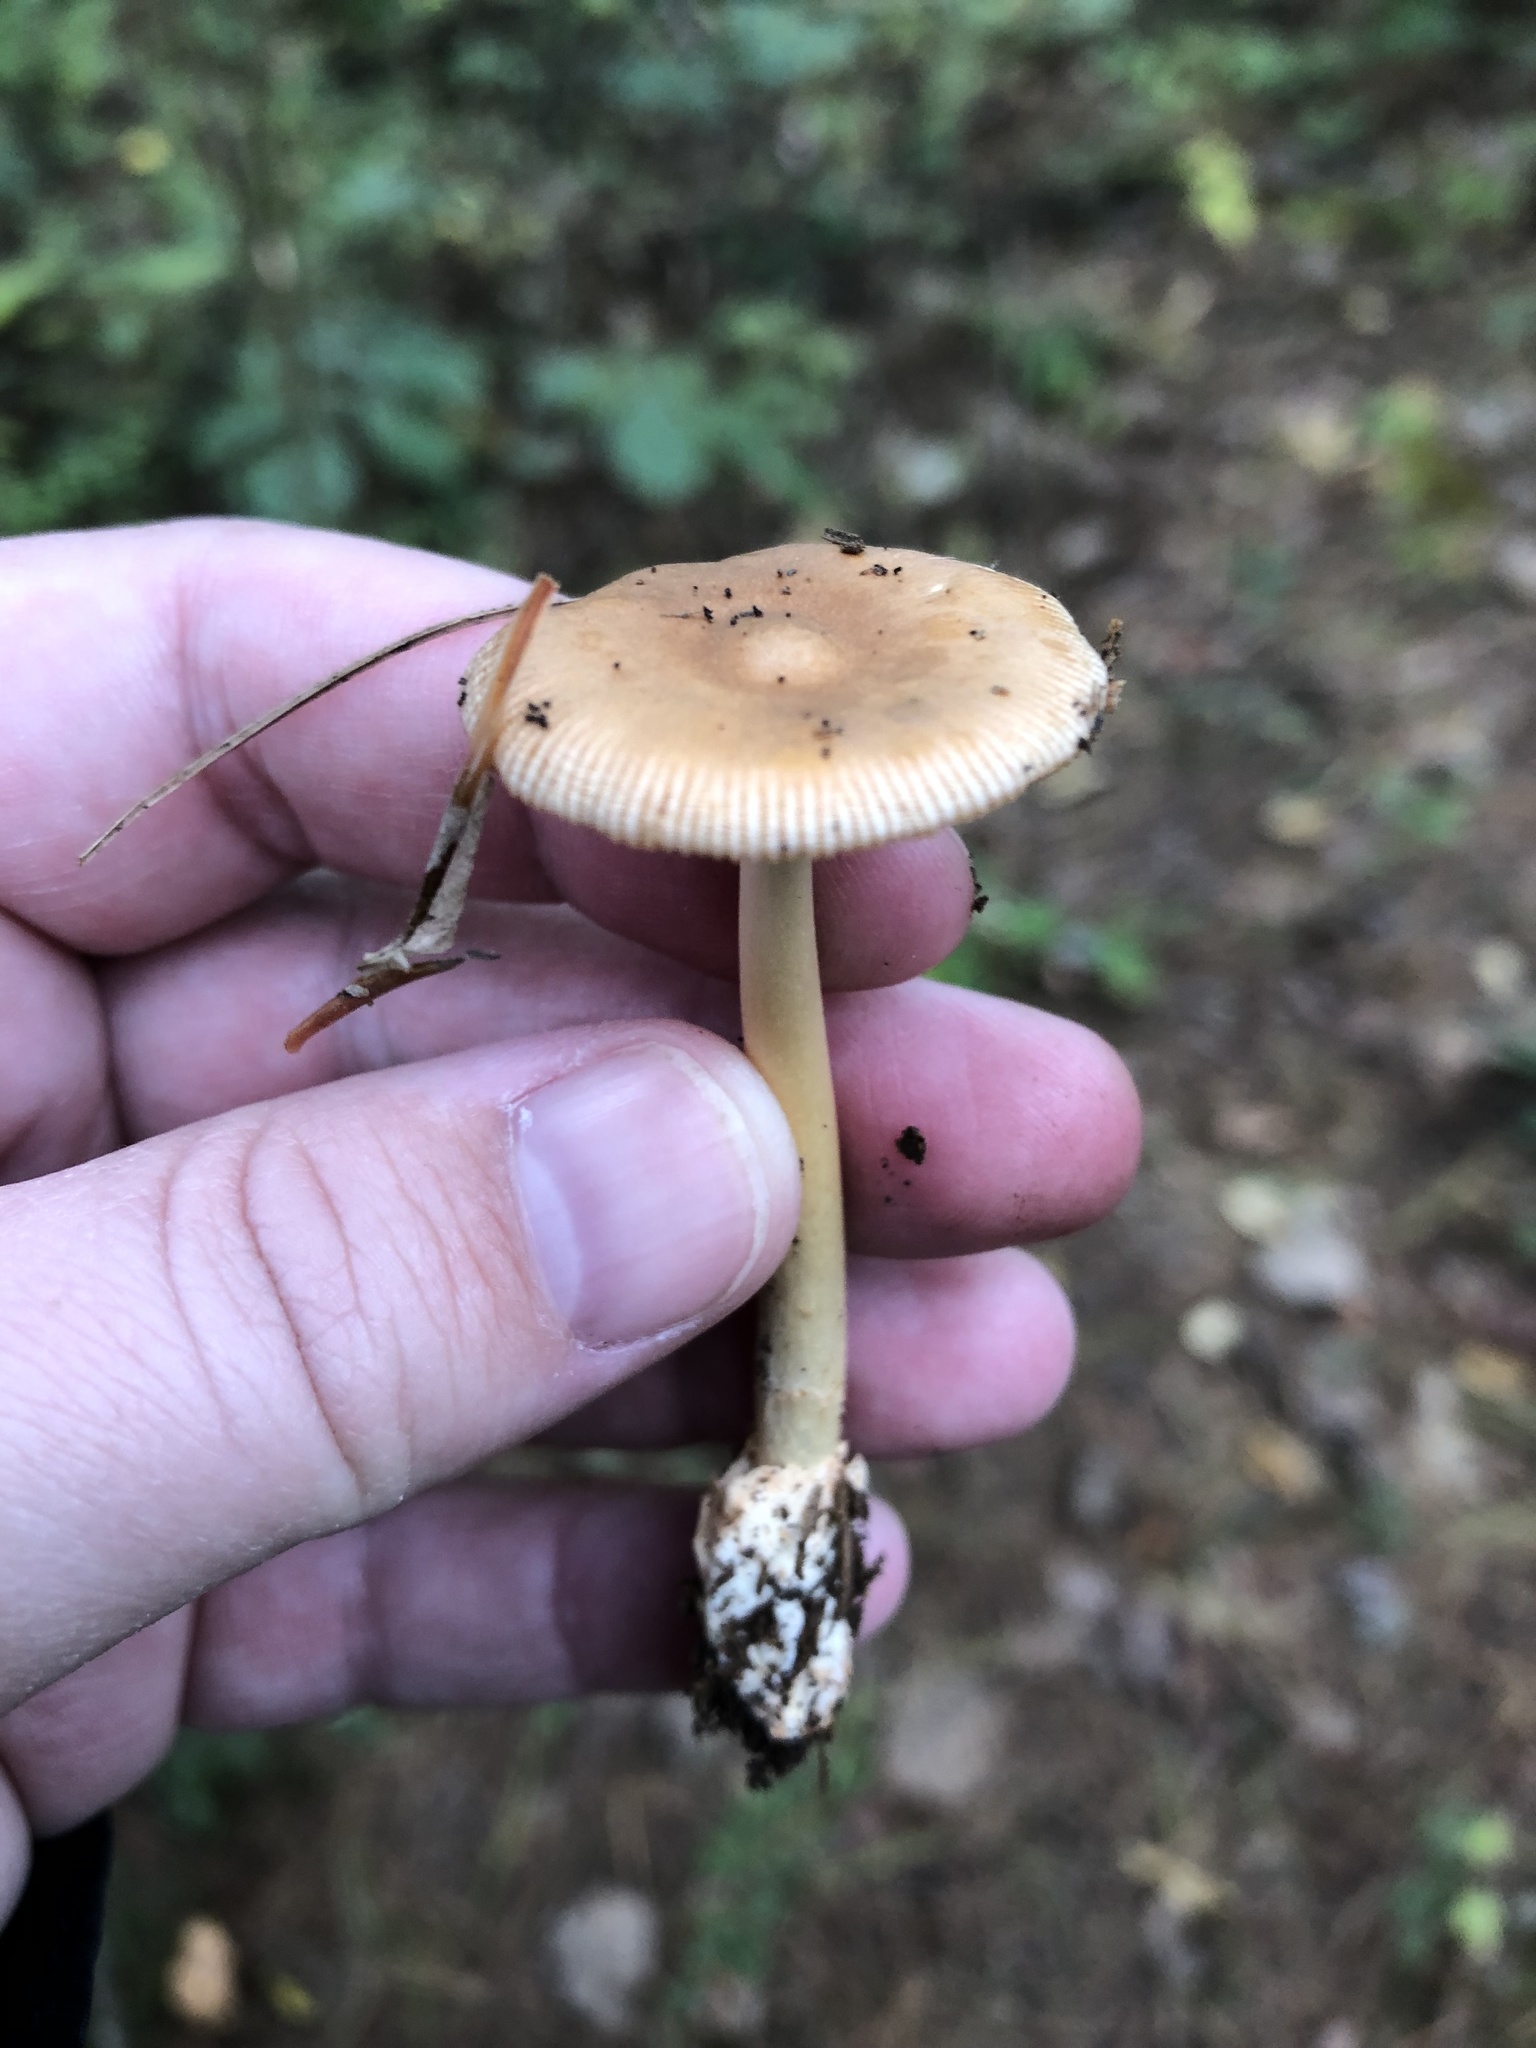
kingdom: Fungi
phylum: Basidiomycota
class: Agaricomycetes
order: Agaricales
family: Amanitaceae
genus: Amanita
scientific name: Amanita fulva
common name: Tawny grisette
